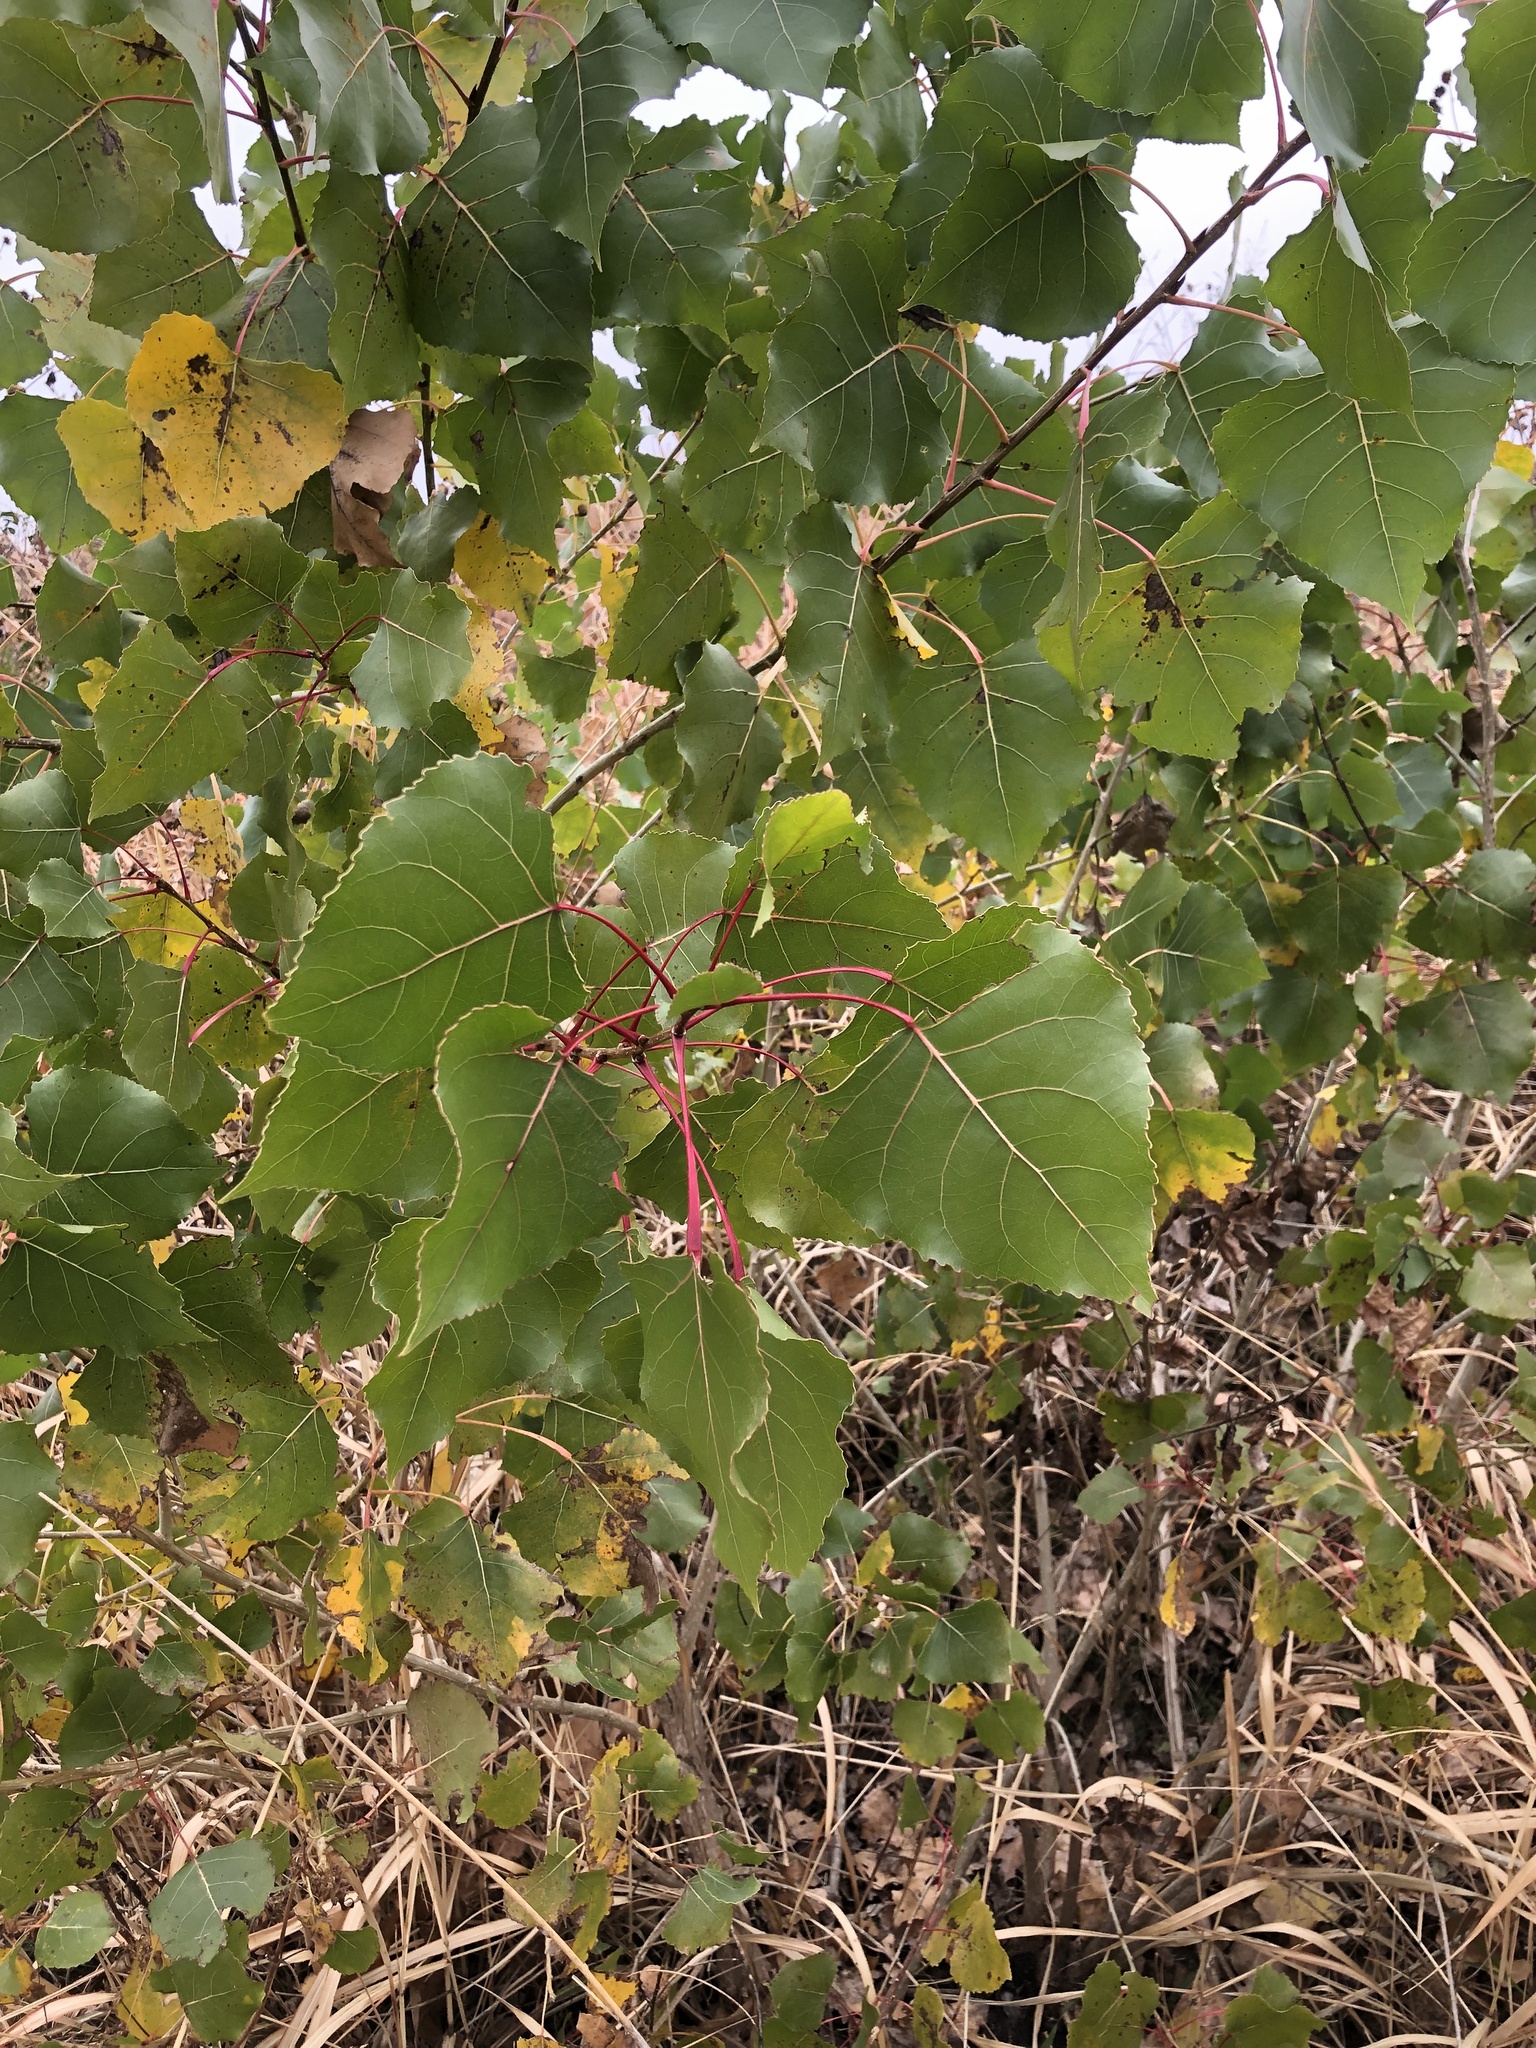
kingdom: Plantae
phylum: Tracheophyta
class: Magnoliopsida
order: Malpighiales
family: Salicaceae
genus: Populus
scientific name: Populus deltoides
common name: Eastern cottonwood
